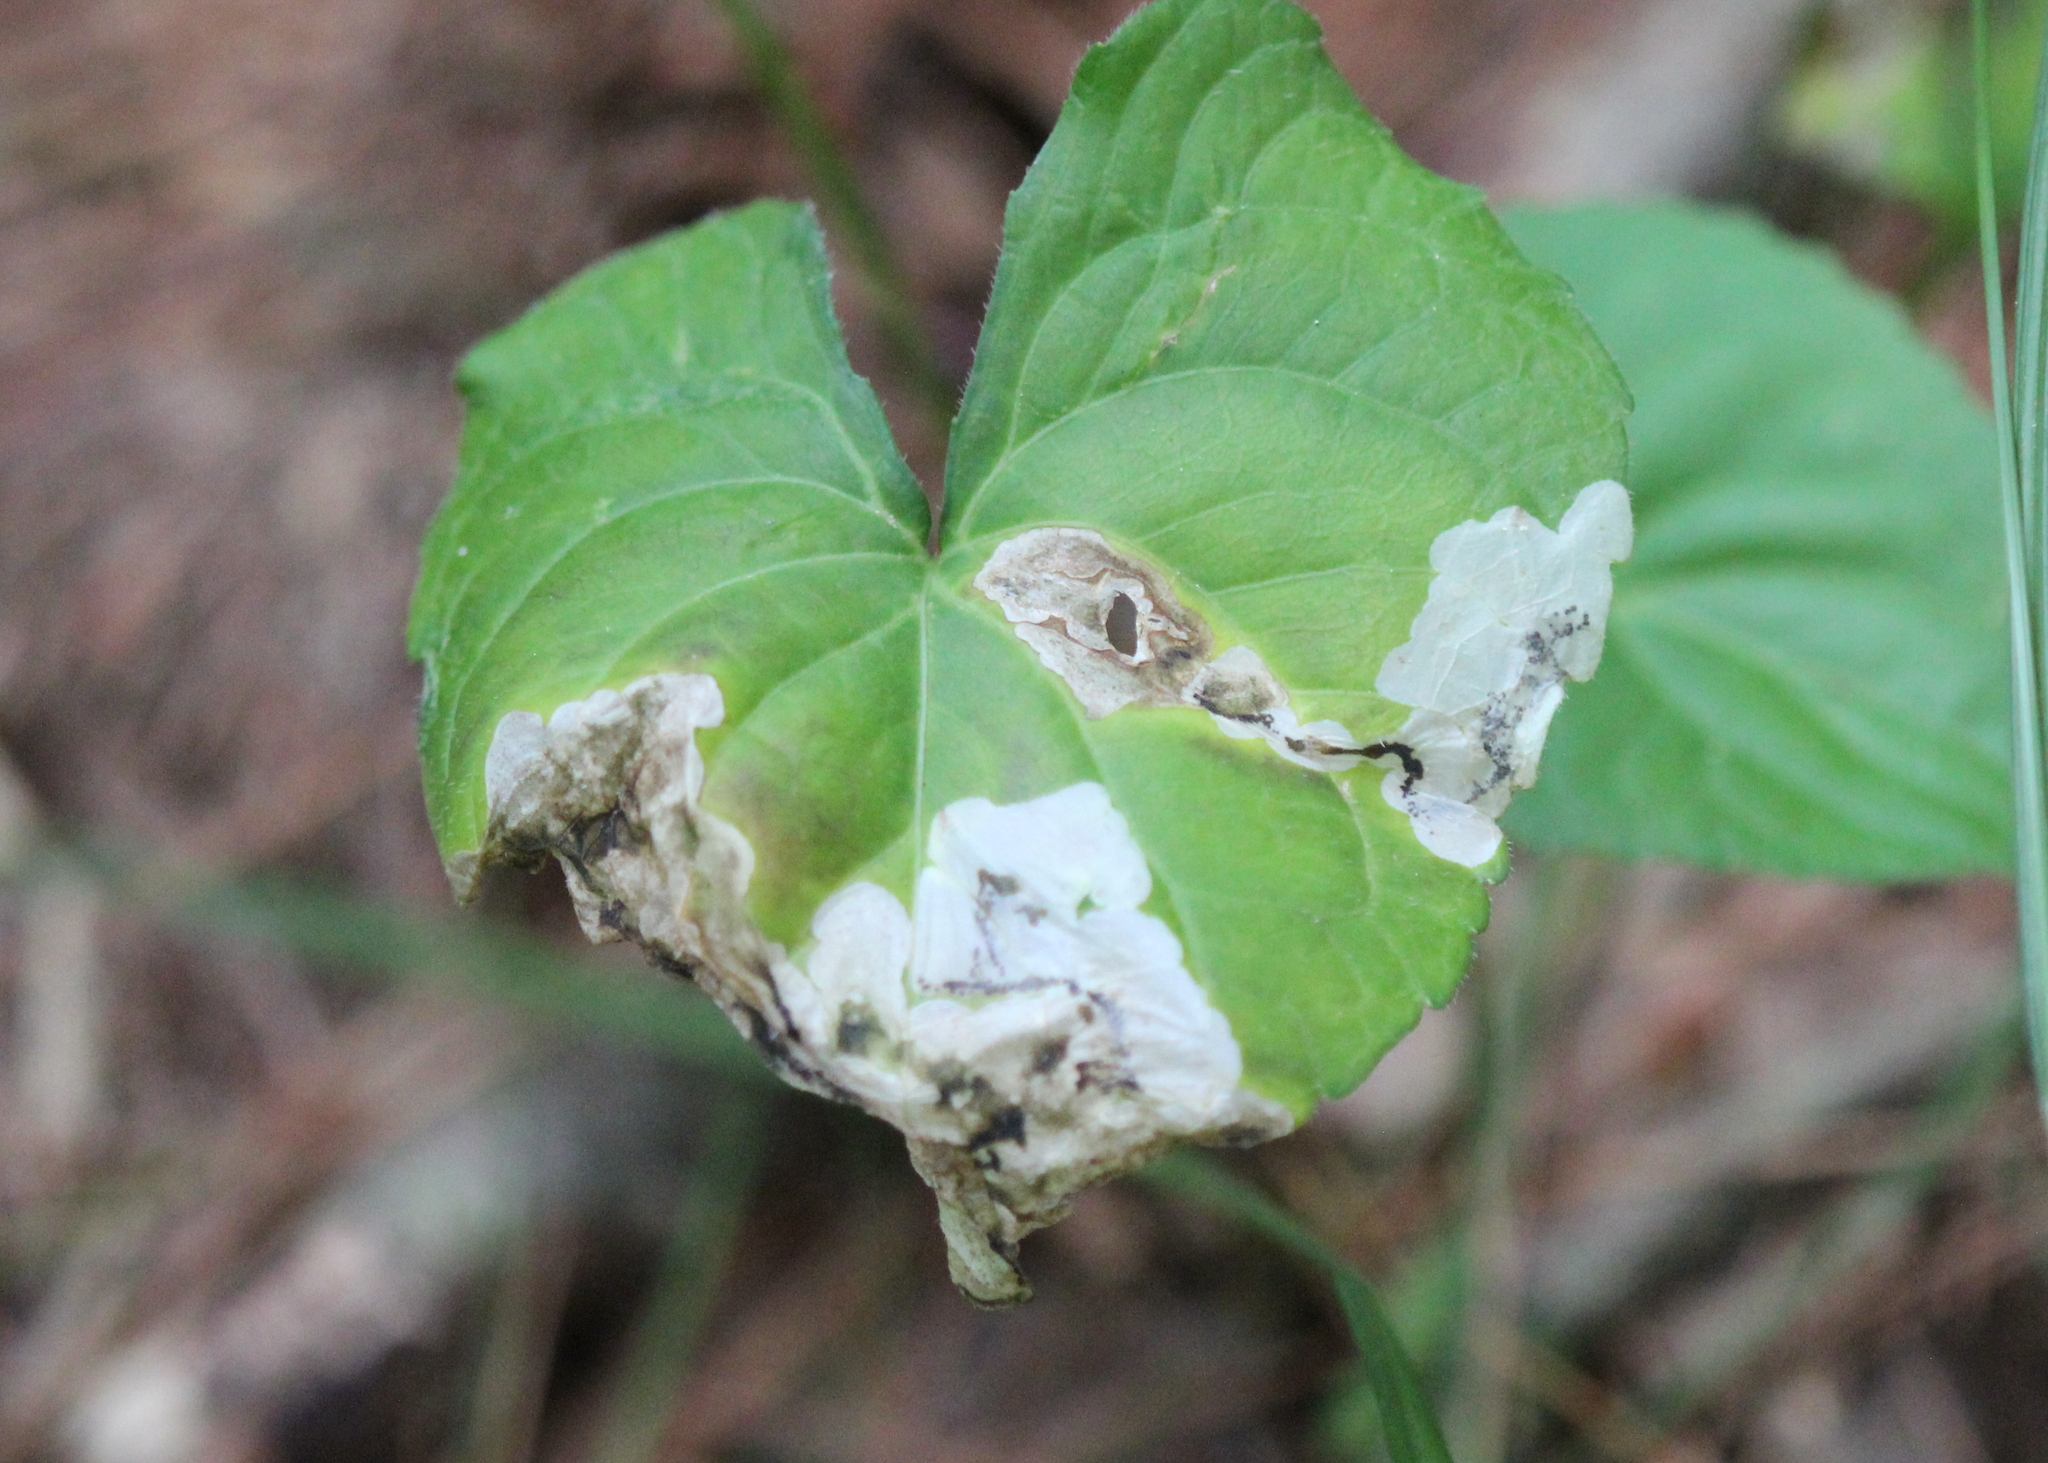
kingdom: Animalia
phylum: Arthropoda
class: Insecta
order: Hymenoptera
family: Tenthredinidae
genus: Nefusa
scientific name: Nefusa ambigua
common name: Violet leafmining sawfly
